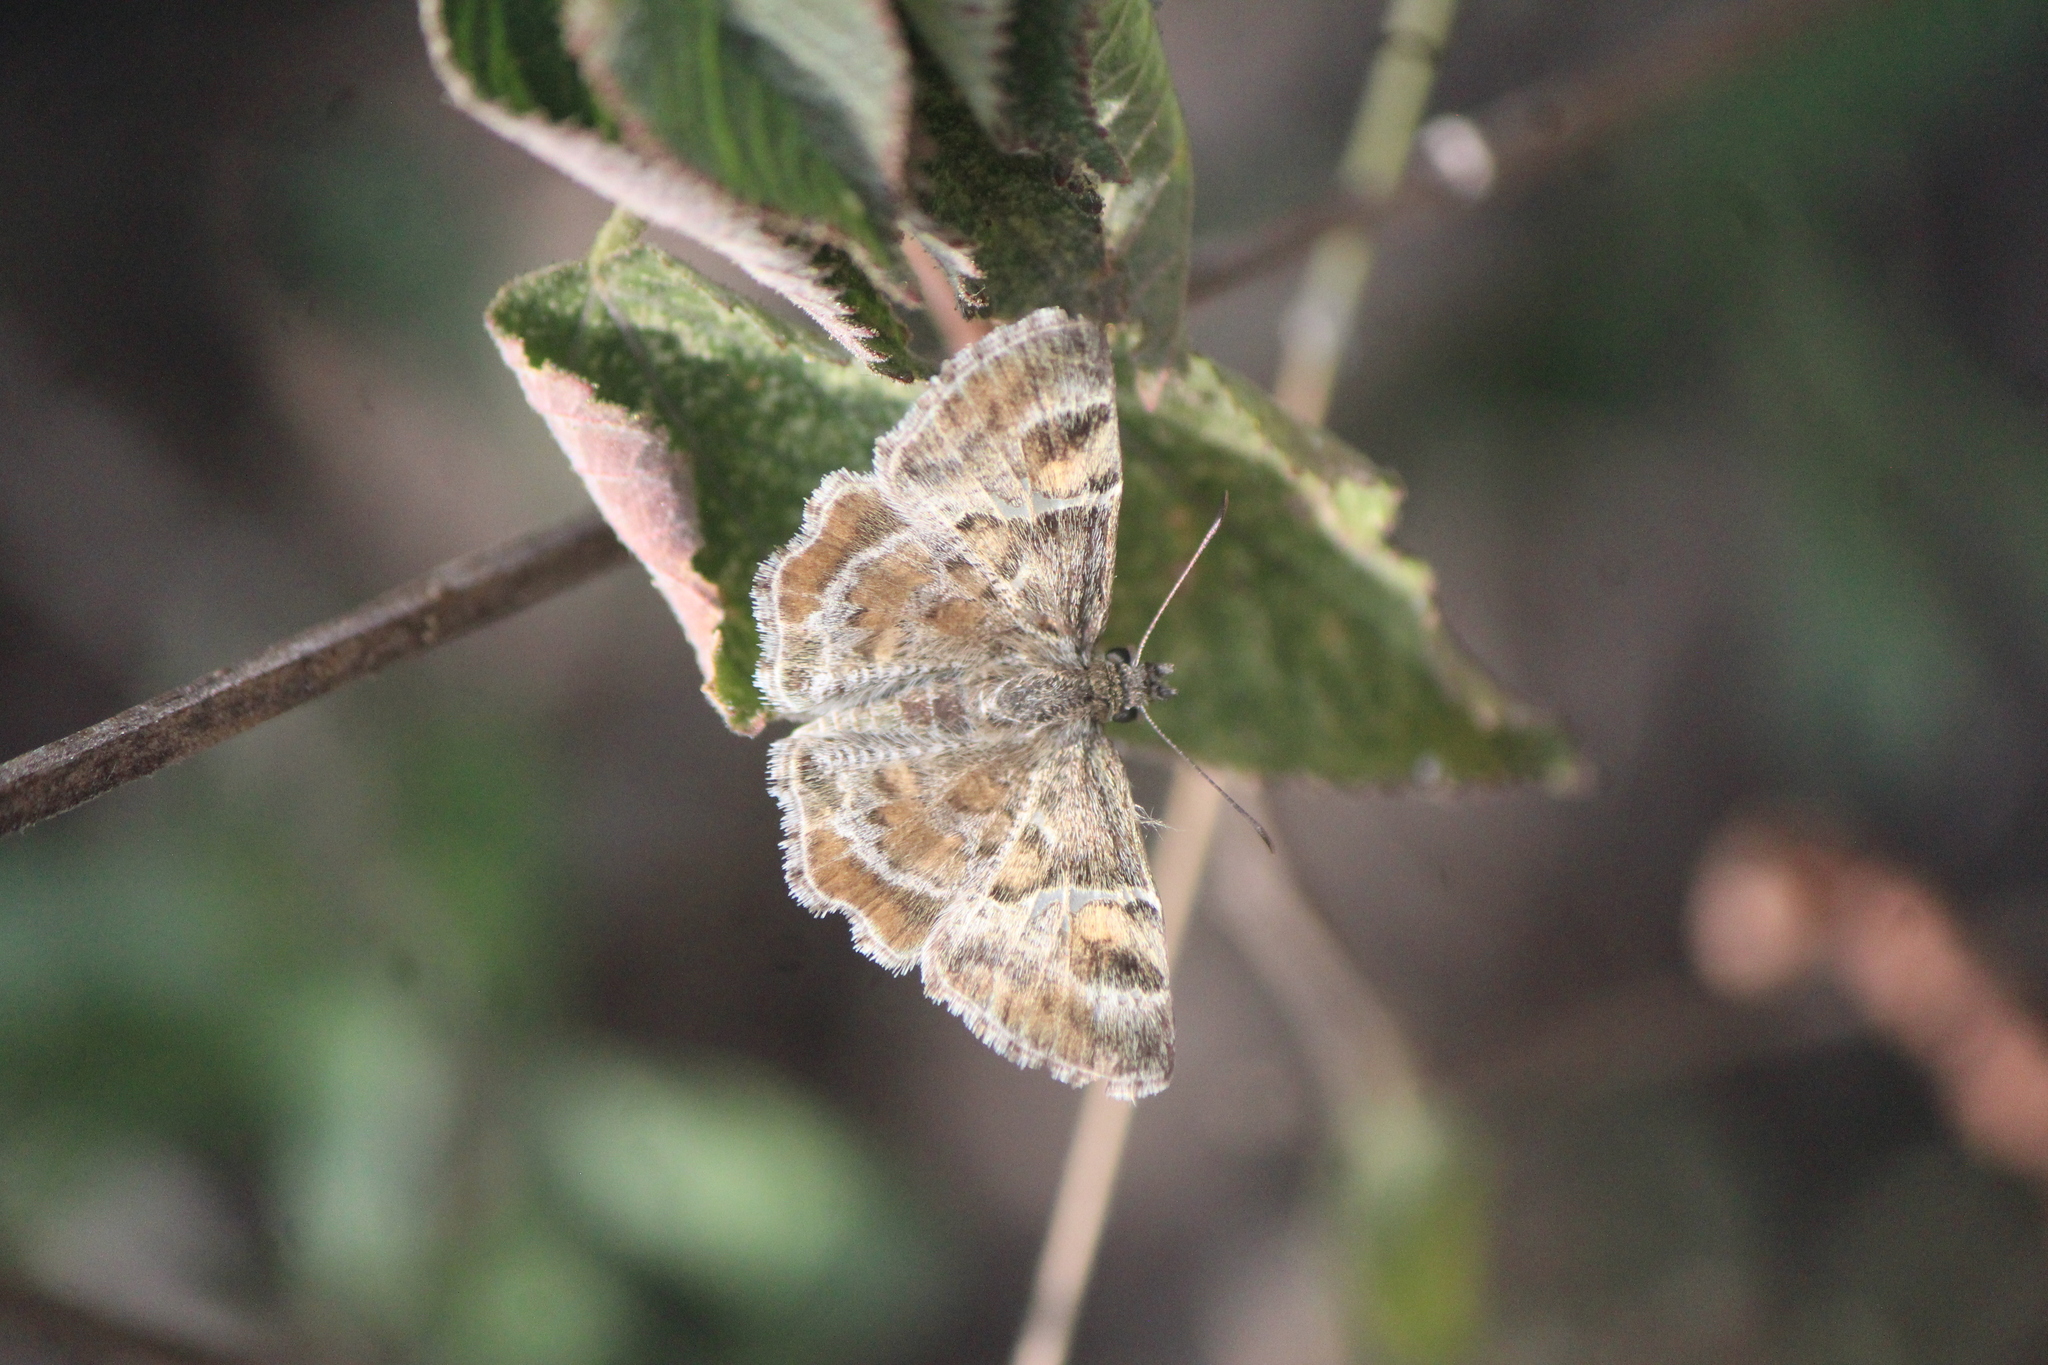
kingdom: Animalia
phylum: Arthropoda
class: Insecta
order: Lepidoptera
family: Hesperiidae
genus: Systasea
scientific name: Systasea pulverulenta
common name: Texas powdered skipper
